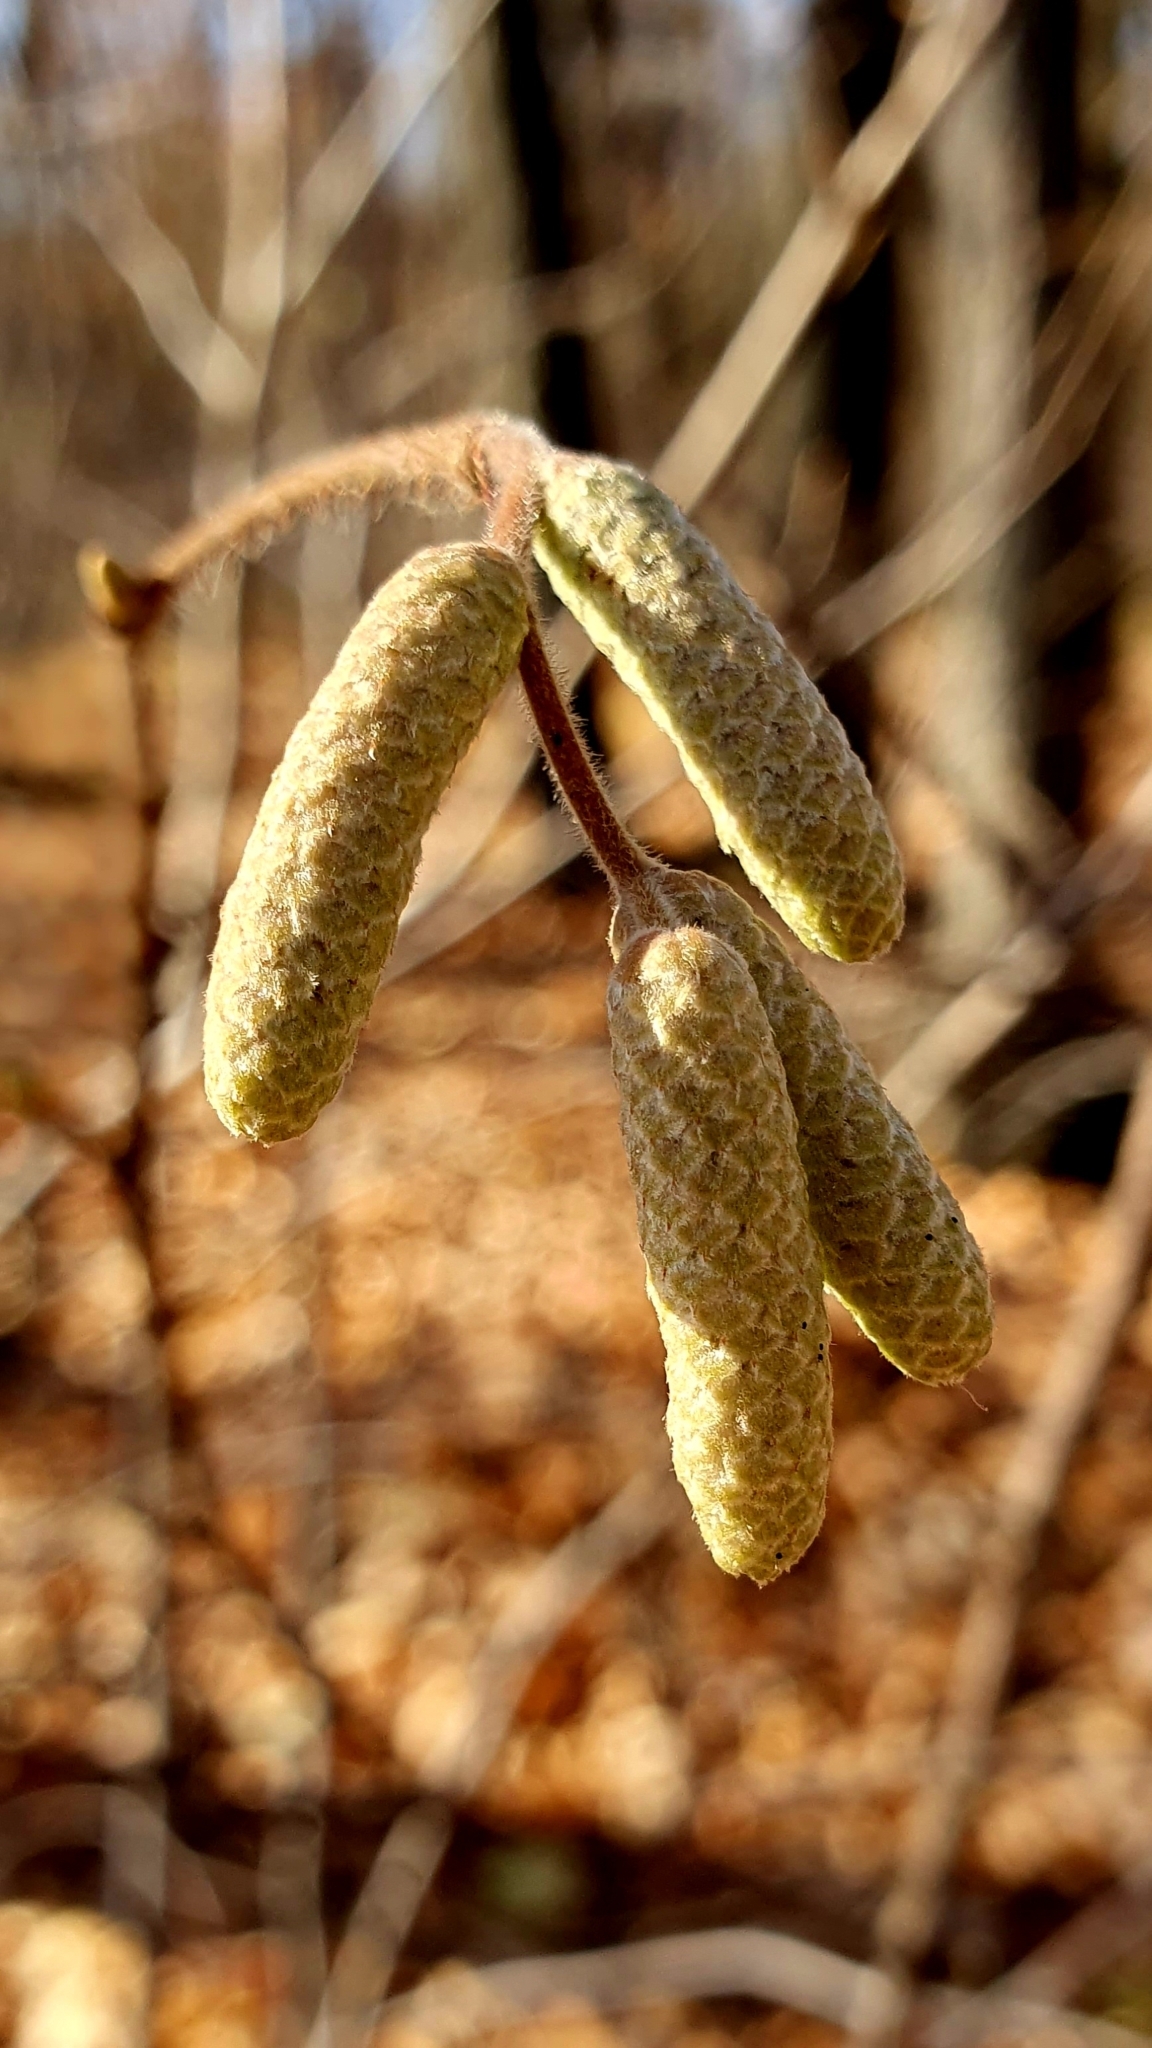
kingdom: Plantae
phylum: Tracheophyta
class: Magnoliopsida
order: Fagales
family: Betulaceae
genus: Corylus
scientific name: Corylus avellana
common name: European hazel
